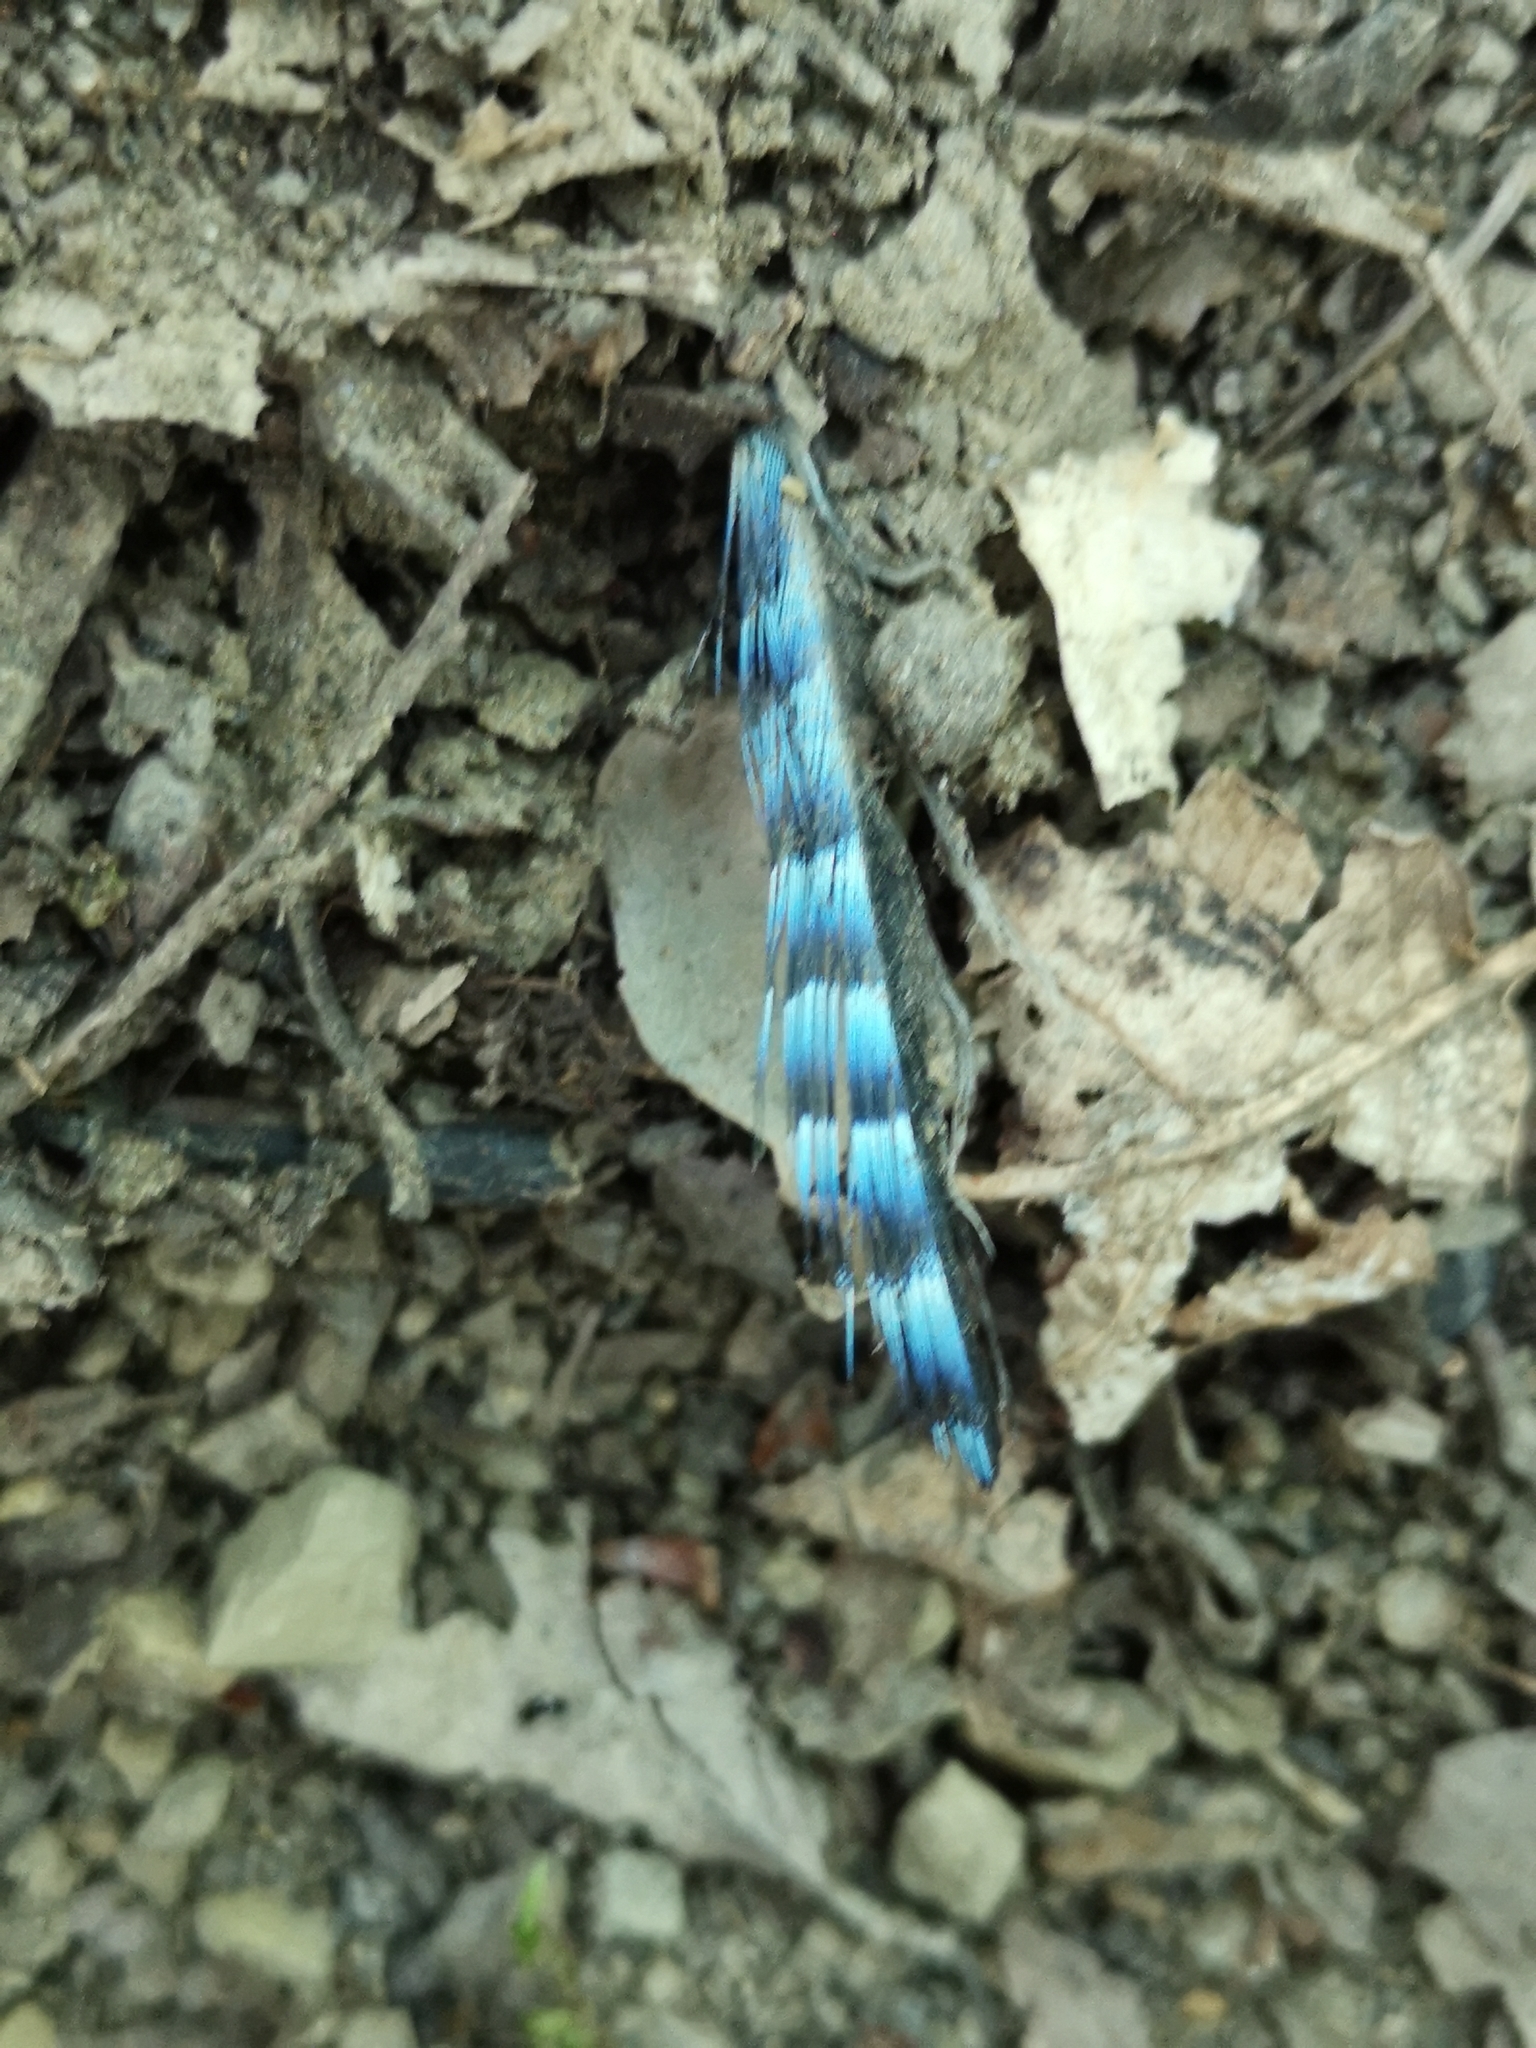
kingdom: Animalia
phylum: Chordata
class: Aves
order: Passeriformes
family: Corvidae
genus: Garrulus
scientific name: Garrulus glandarius
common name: Eurasian jay
